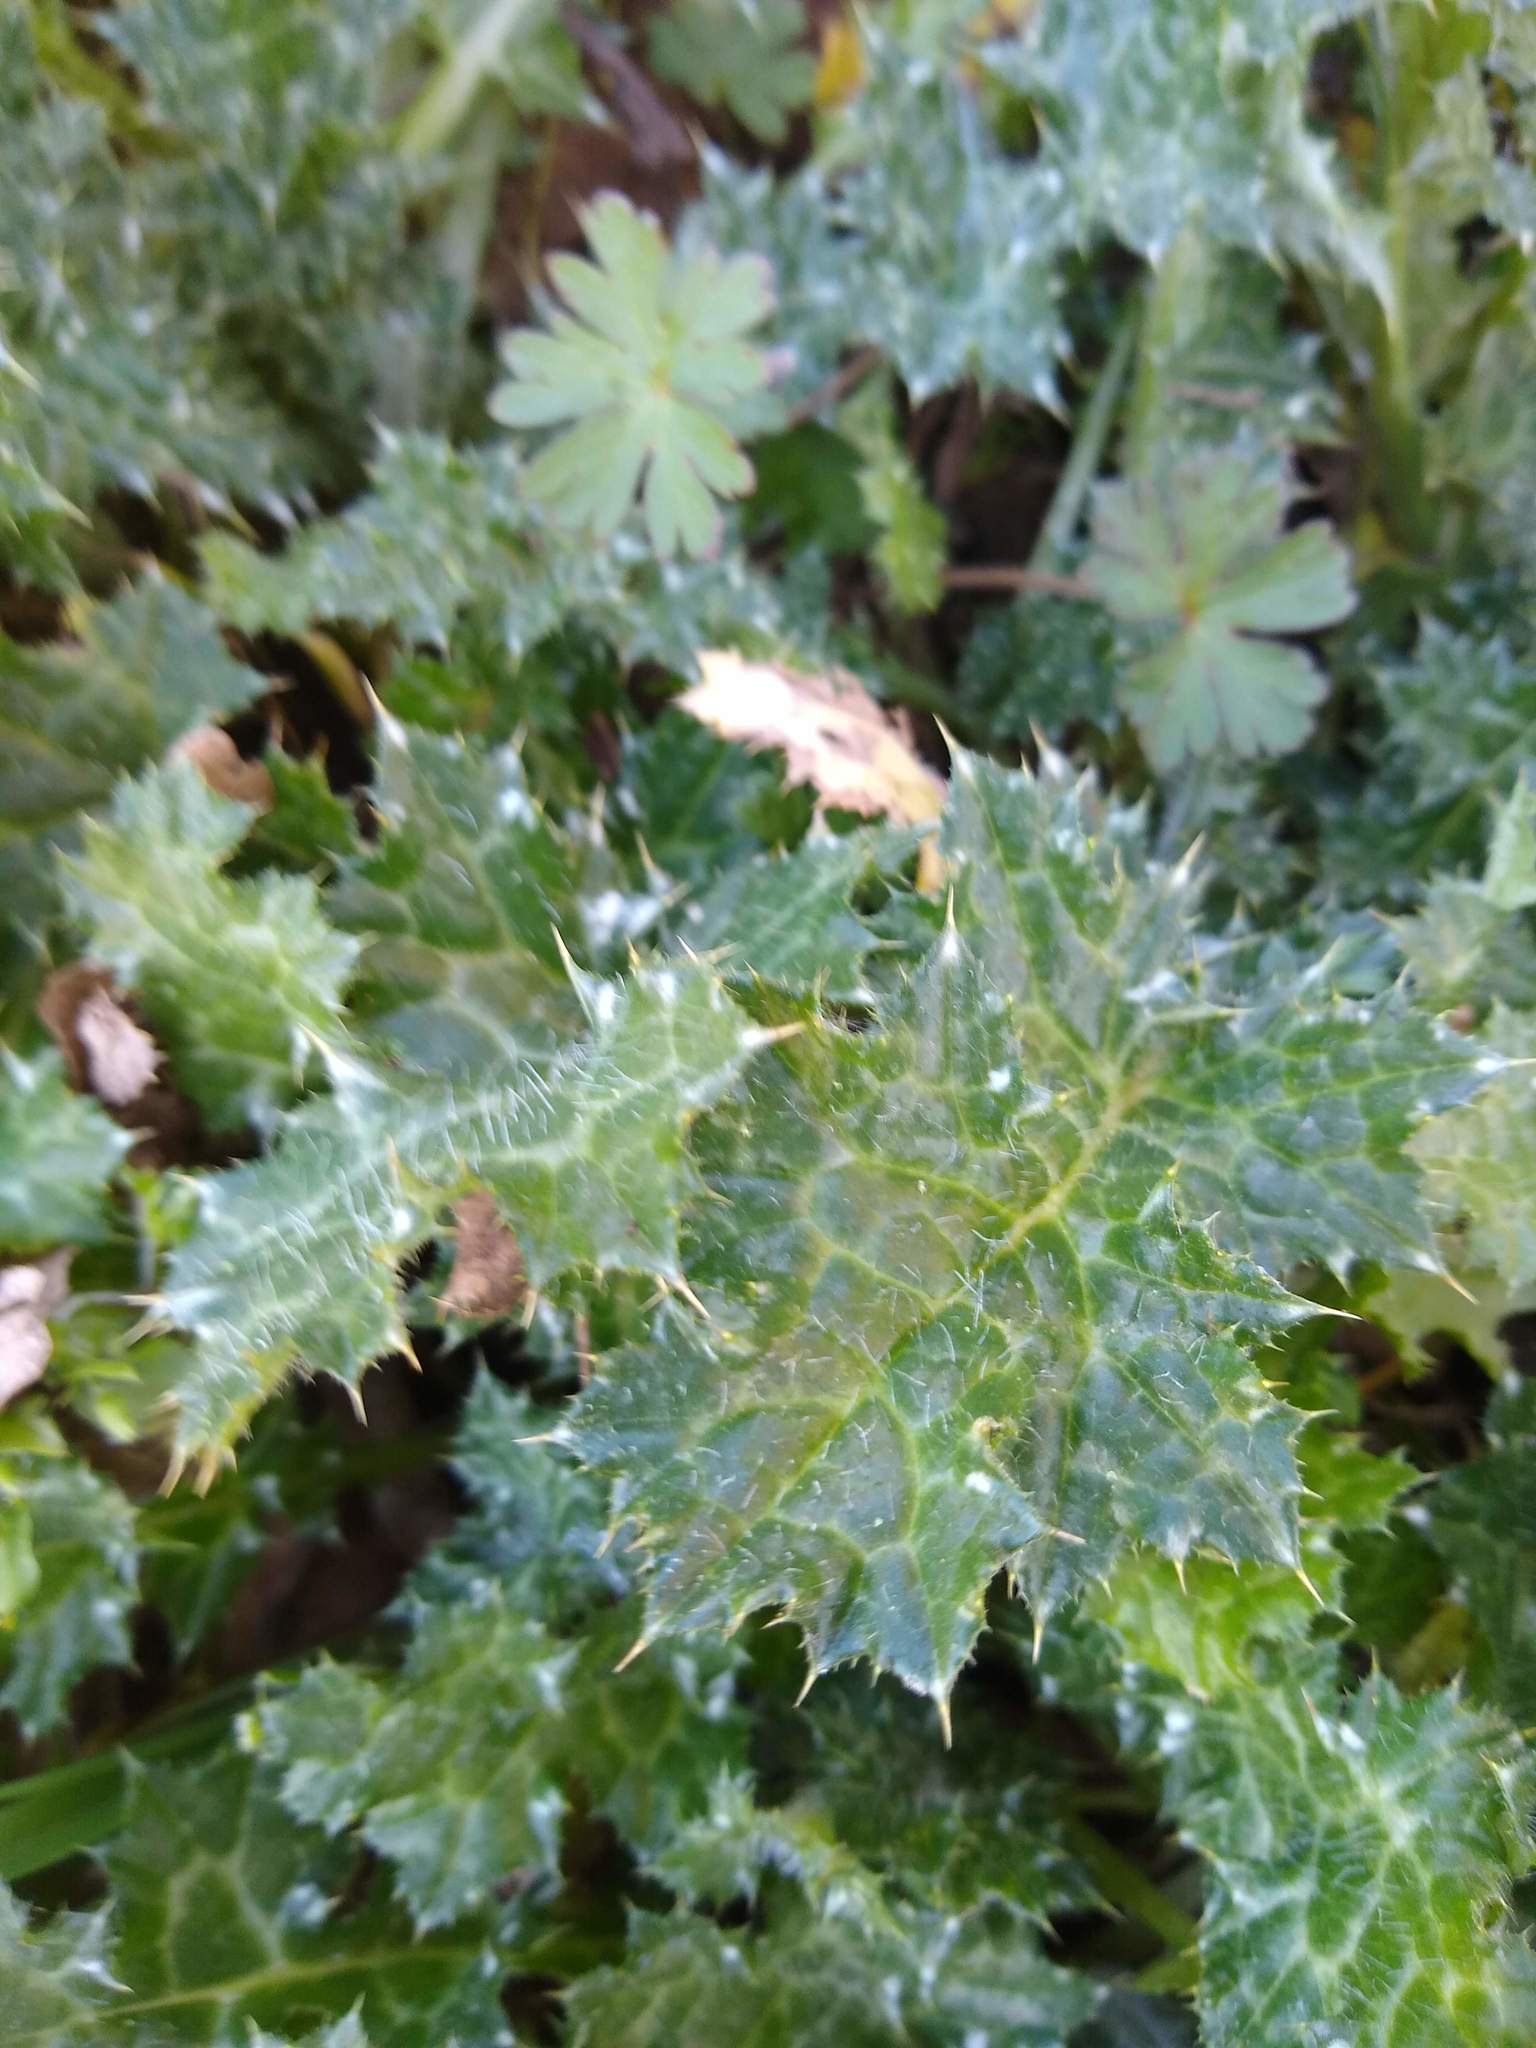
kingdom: Plantae
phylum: Tracheophyta
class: Magnoliopsida
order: Asterales
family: Asteraceae
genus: Carduus
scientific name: Carduus pycnocephalus
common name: Plymouth thistle
